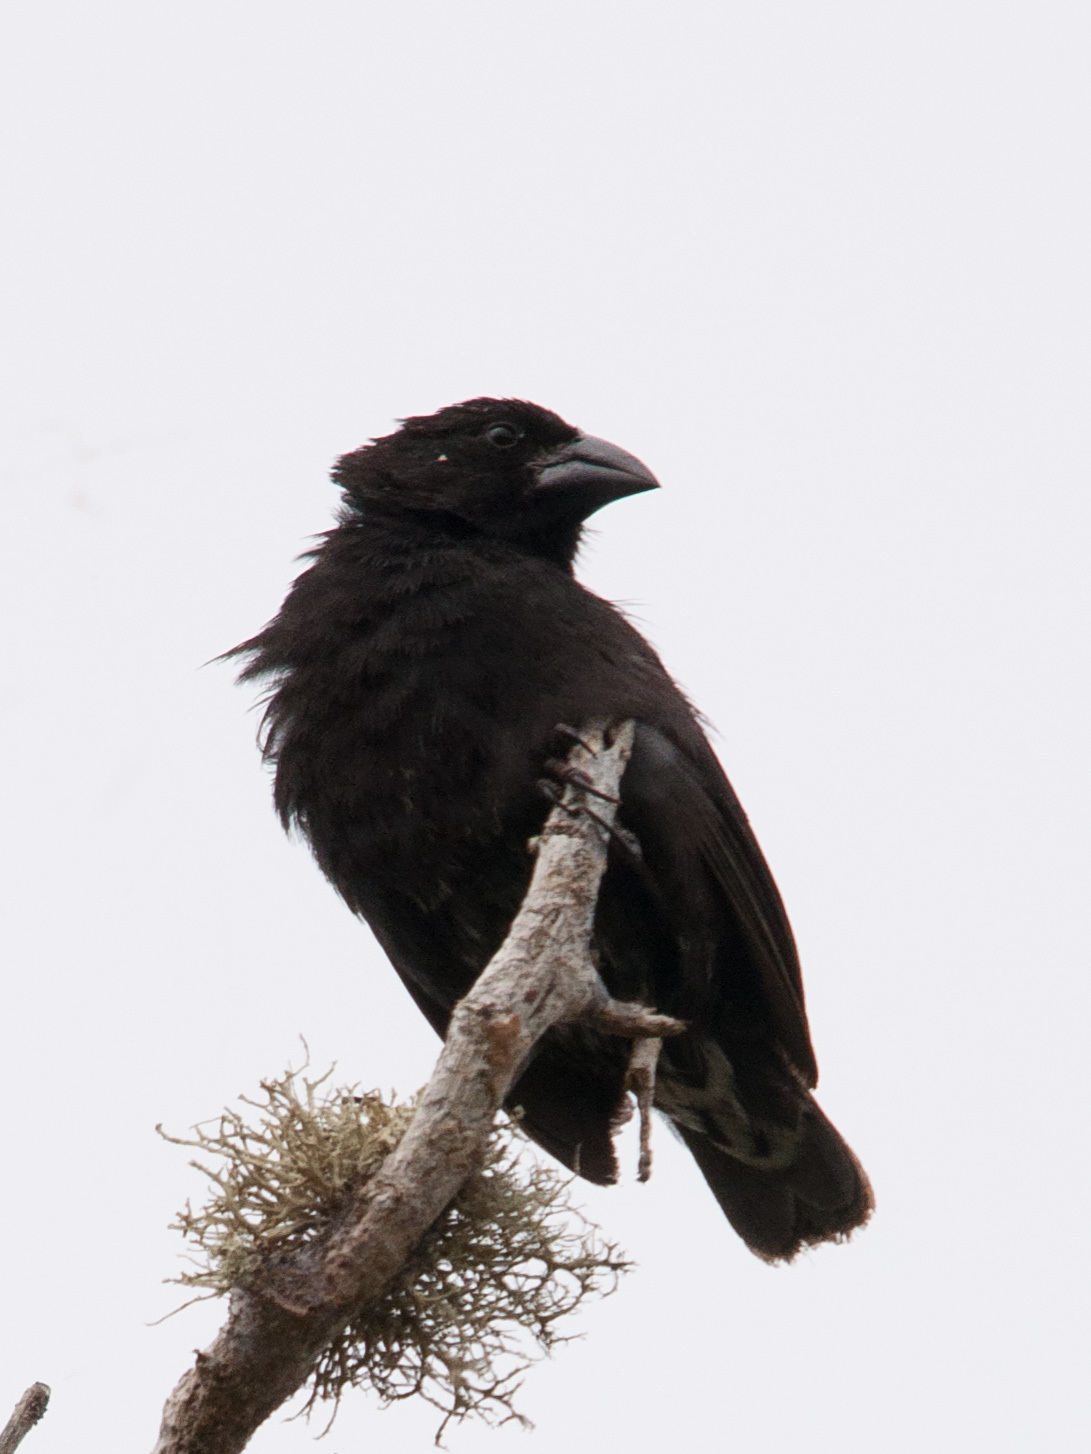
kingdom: Animalia
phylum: Chordata
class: Aves
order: Passeriformes
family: Thraupidae
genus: Geospiza
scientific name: Geospiza scandens
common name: Common cactus-finch
